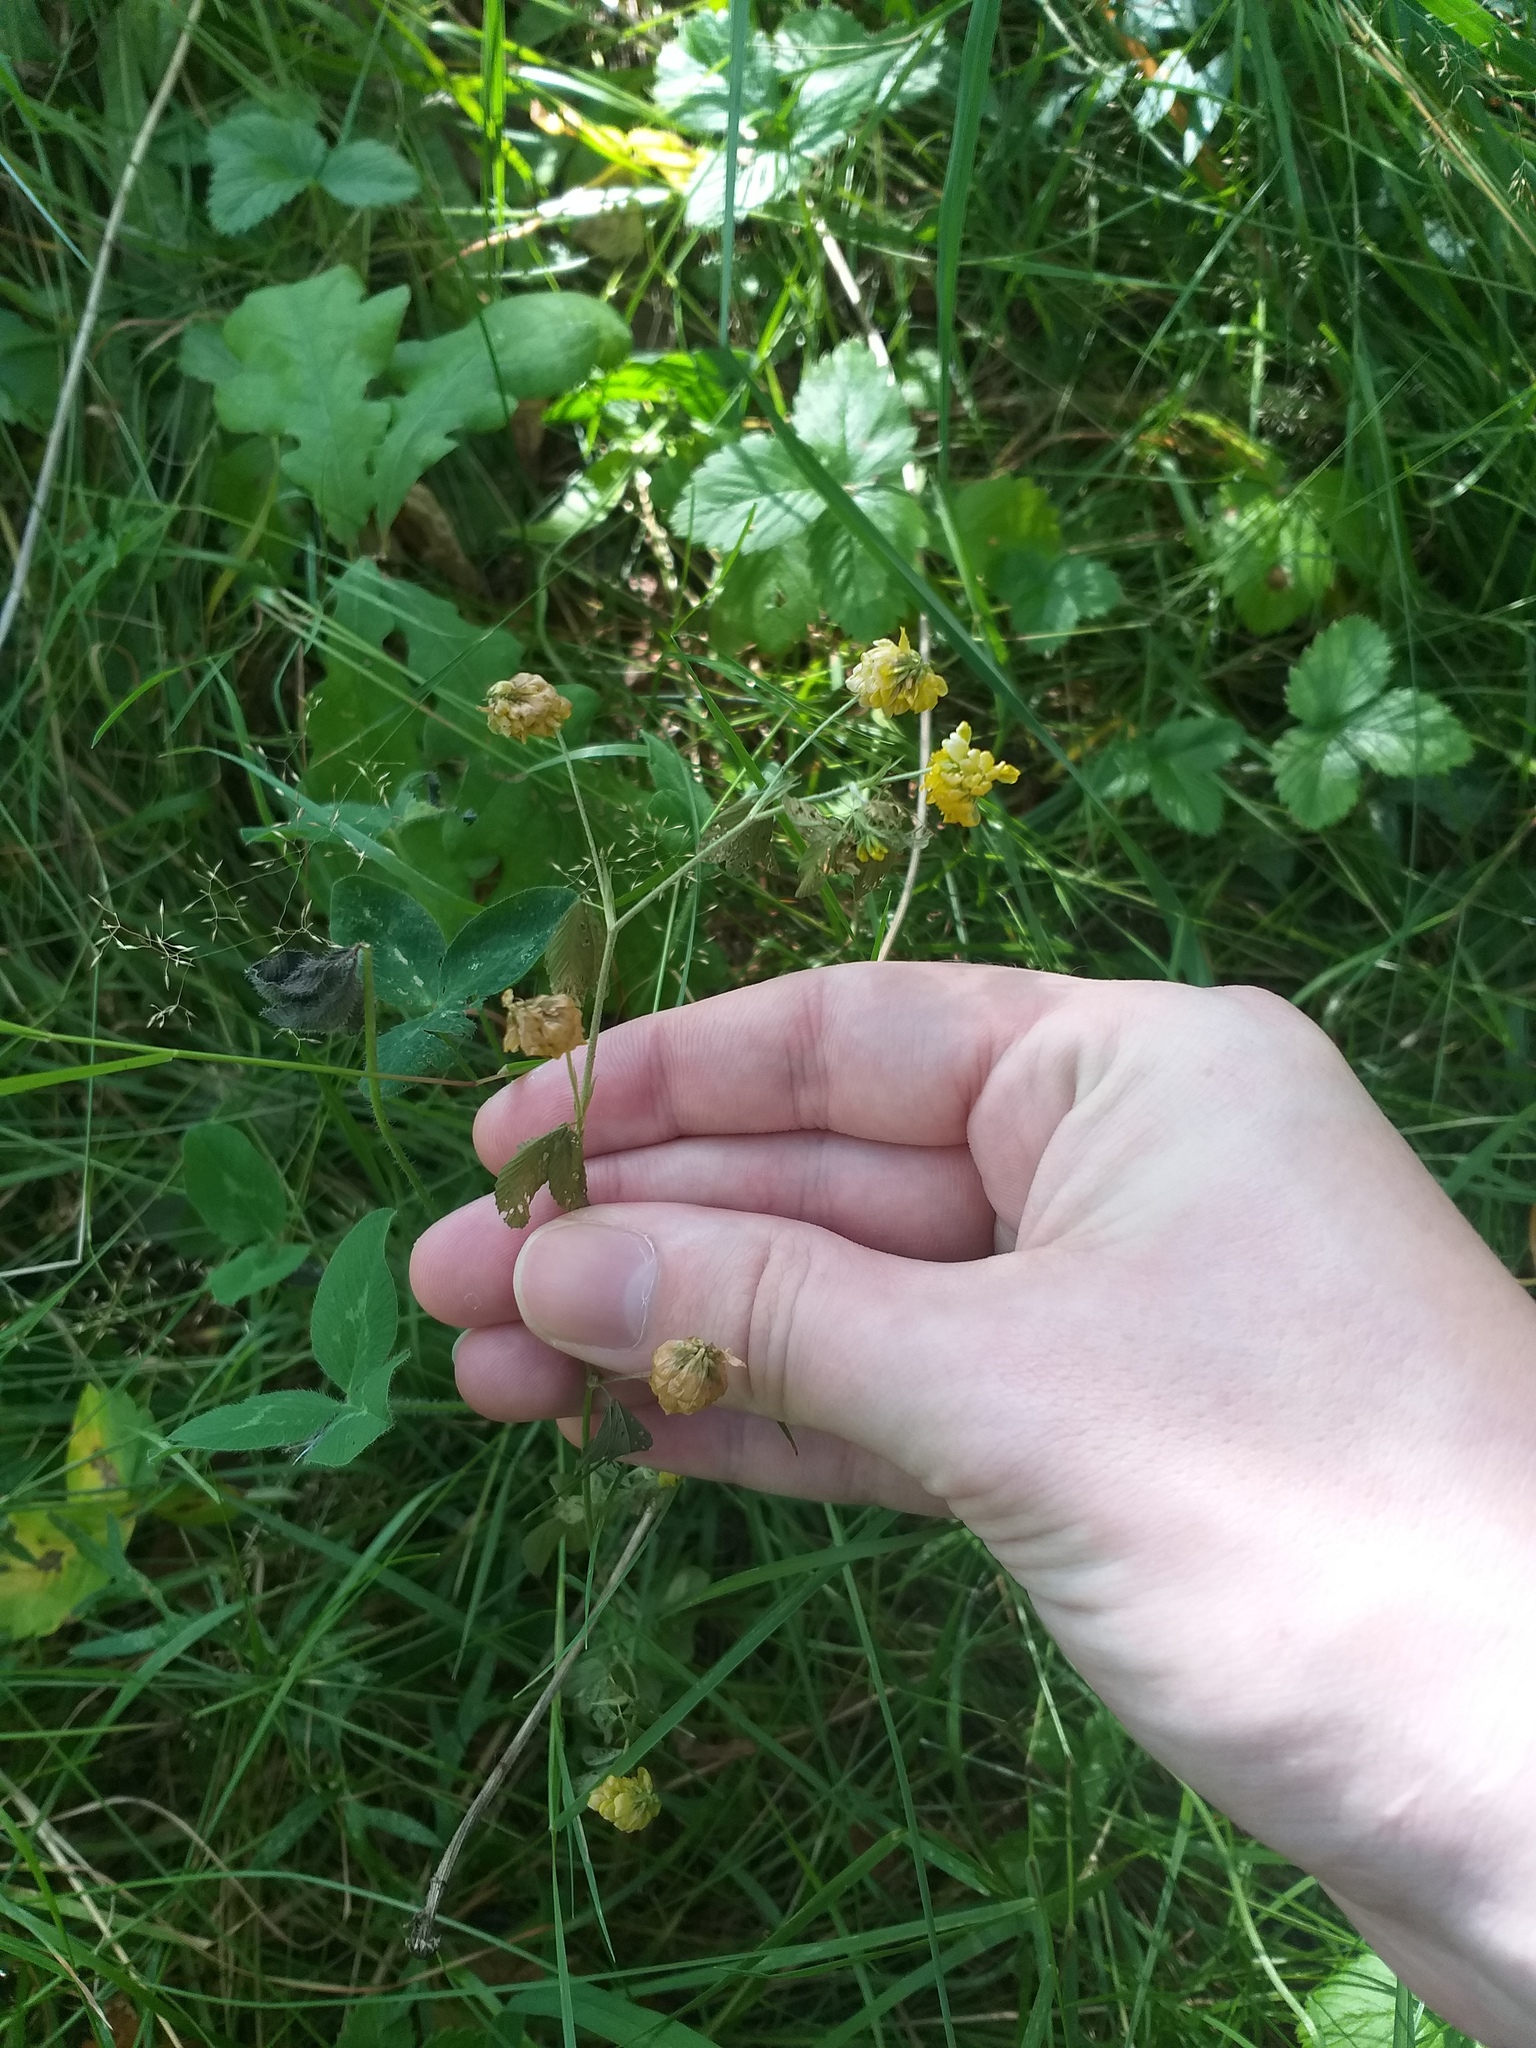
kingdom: Plantae
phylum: Tracheophyta
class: Magnoliopsida
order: Fabales
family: Fabaceae
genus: Trifolium
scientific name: Trifolium aureum
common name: Golden clover
